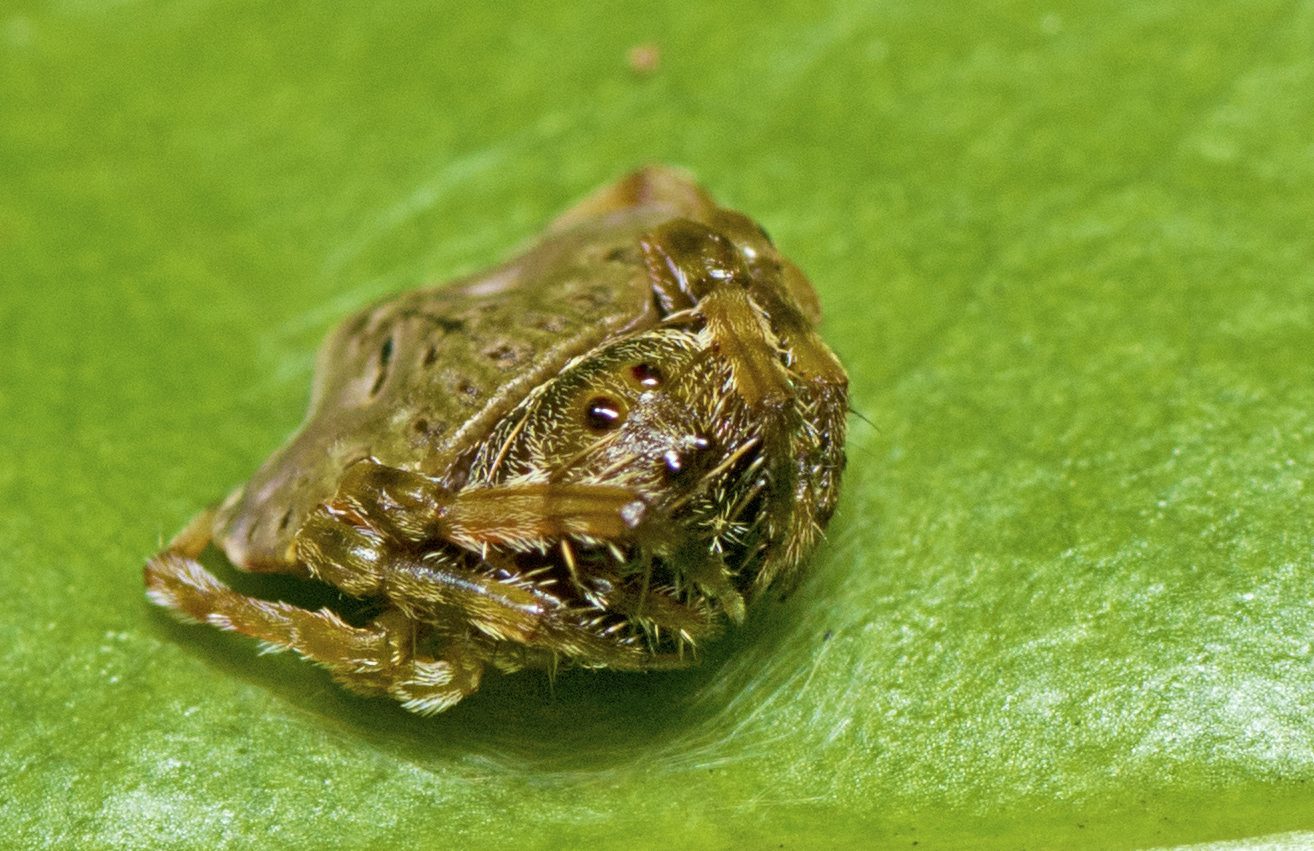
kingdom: Animalia
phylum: Arthropoda
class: Arachnida
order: Araneae
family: Arkyidae
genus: Arkys
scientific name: Arkys speechleyi
